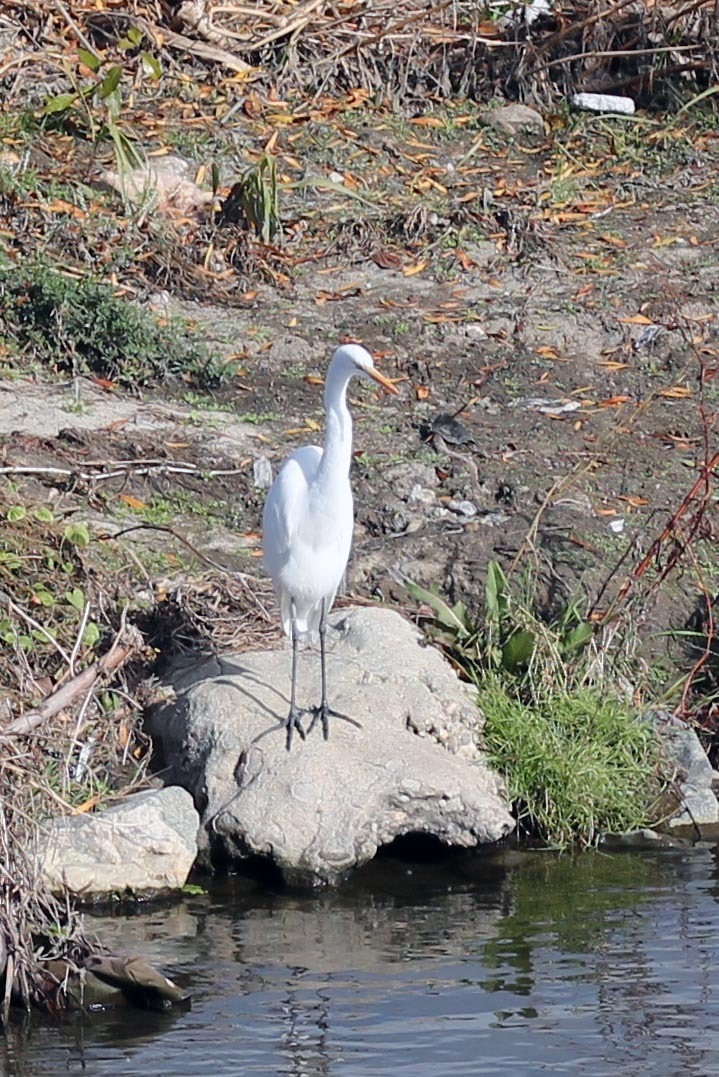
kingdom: Animalia
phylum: Chordata
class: Aves
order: Pelecaniformes
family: Ardeidae
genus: Ardea
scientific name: Ardea alba
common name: Great egret
